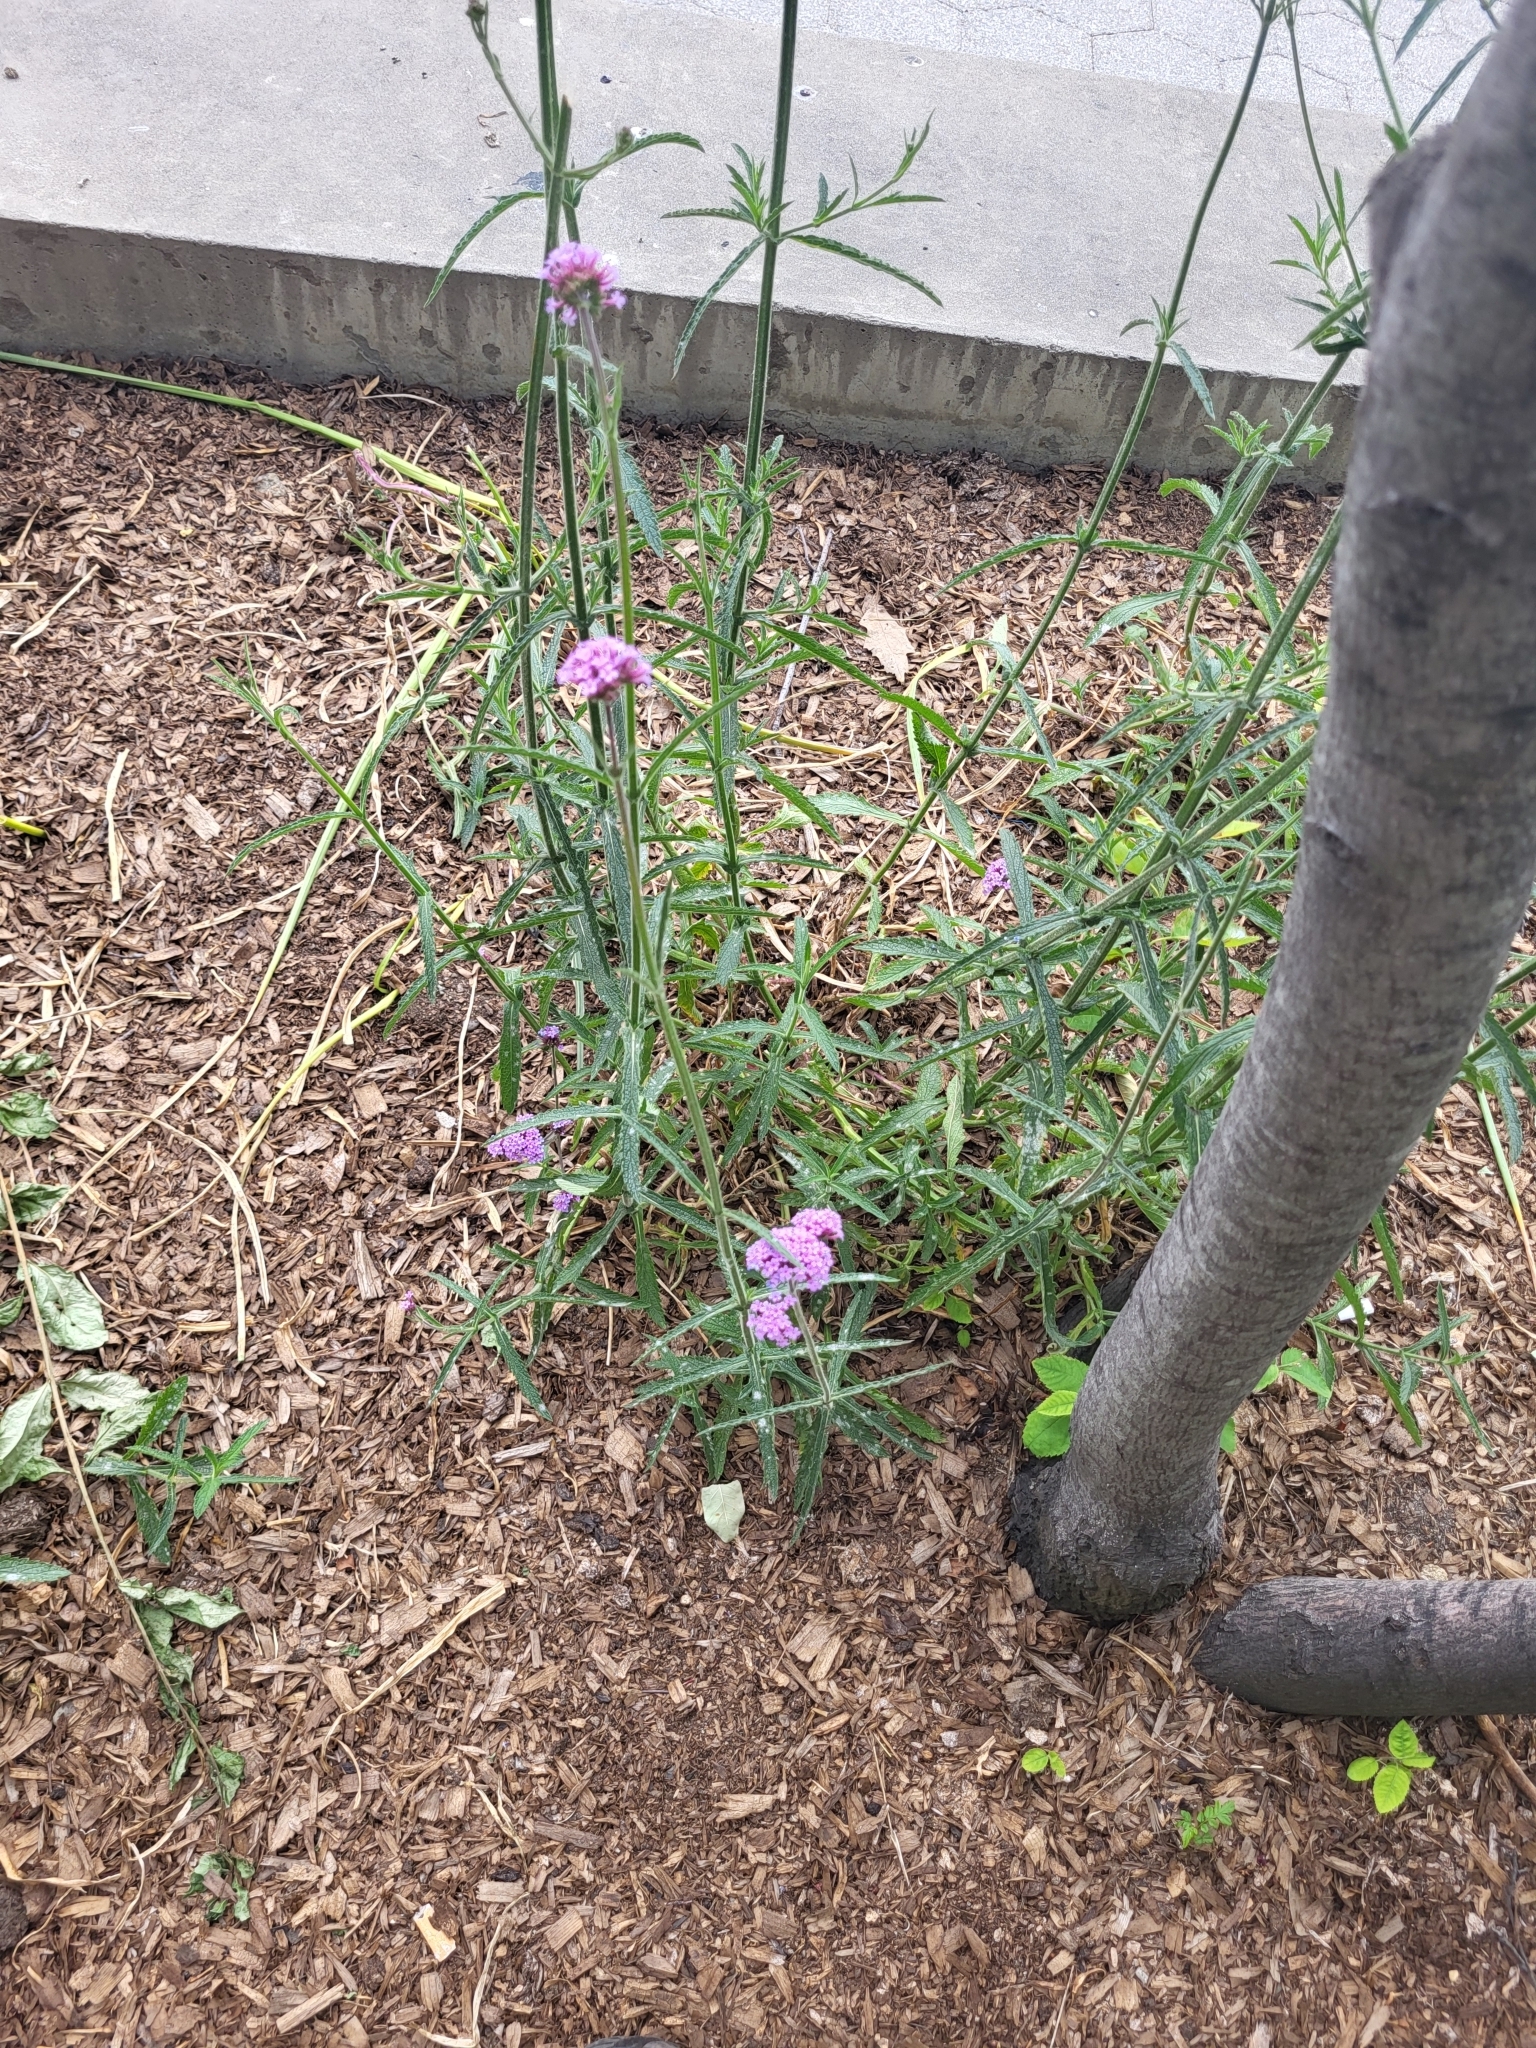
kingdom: Fungi
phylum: Ascomycota
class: Leotiomycetes
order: Helotiales
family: Erysiphaceae
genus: Golovinomyces
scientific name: Golovinomyces verbenae
